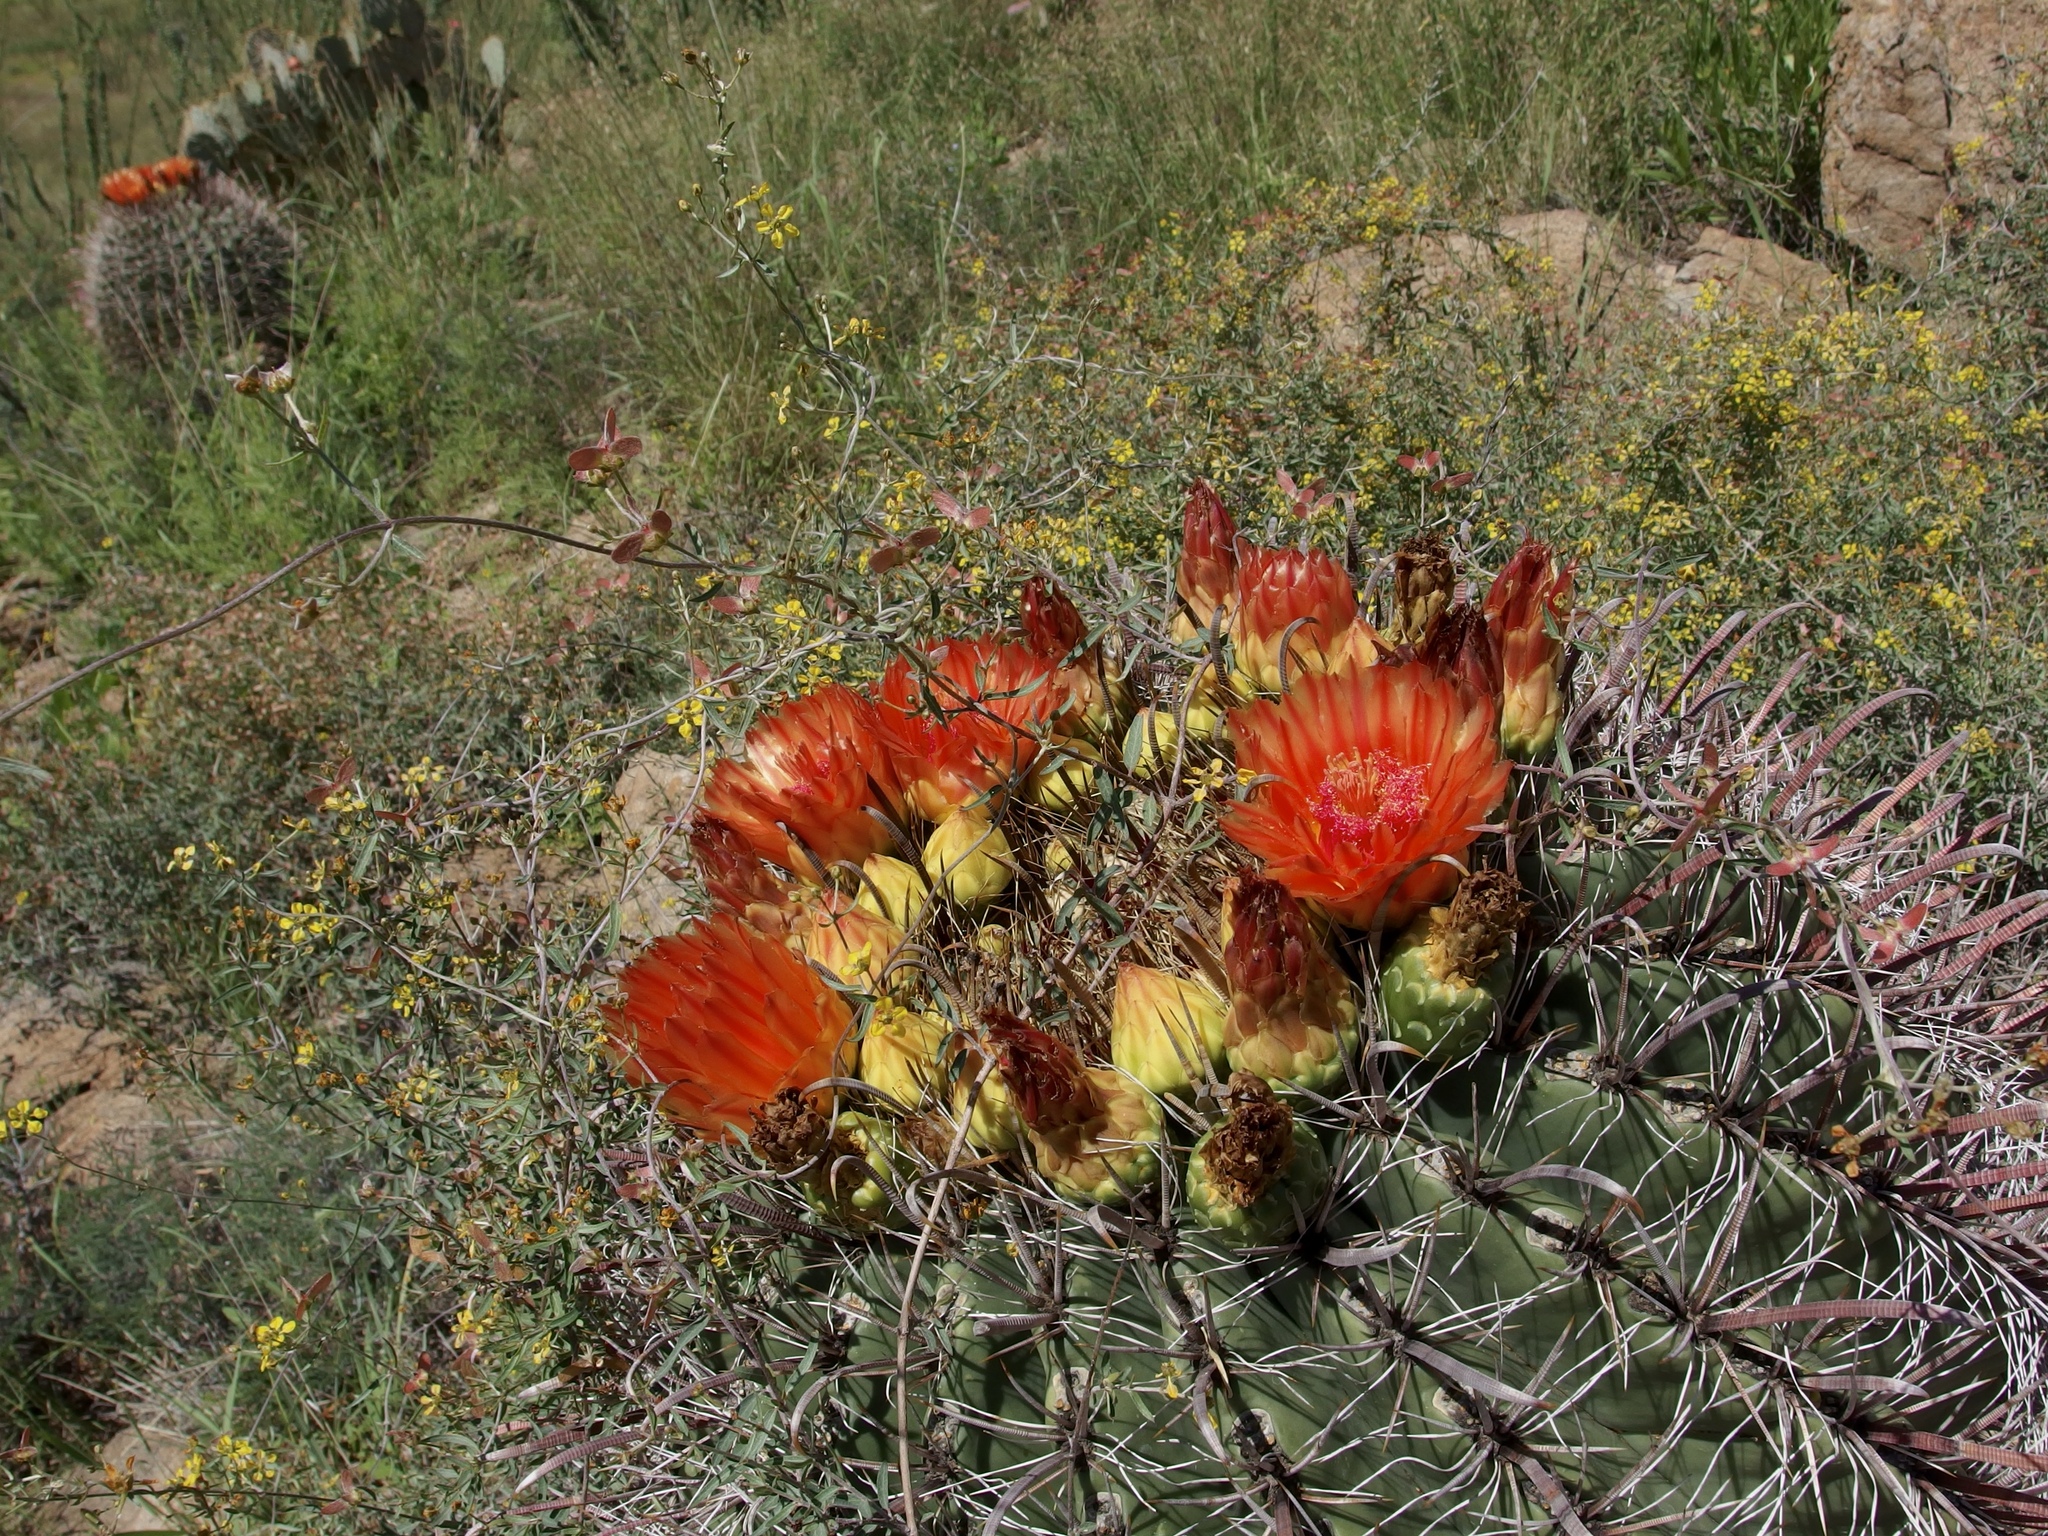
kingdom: Plantae
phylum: Tracheophyta
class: Magnoliopsida
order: Caryophyllales
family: Cactaceae
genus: Ferocactus
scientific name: Ferocactus wislizeni
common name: Candy barrel cactus
